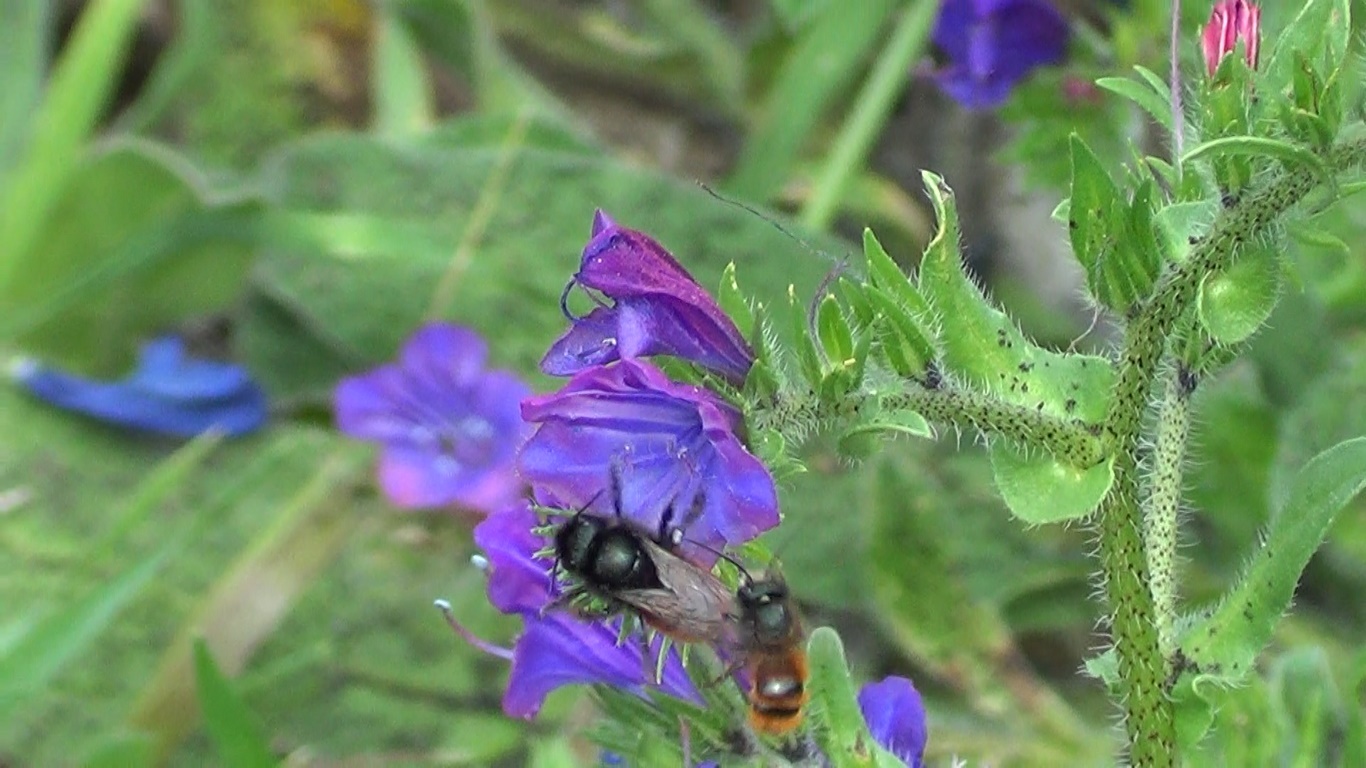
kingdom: Animalia
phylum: Arthropoda
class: Insecta
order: Hymenoptera
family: Megachilidae
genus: Osmia
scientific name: Osmia cornuta
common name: Mason bee
